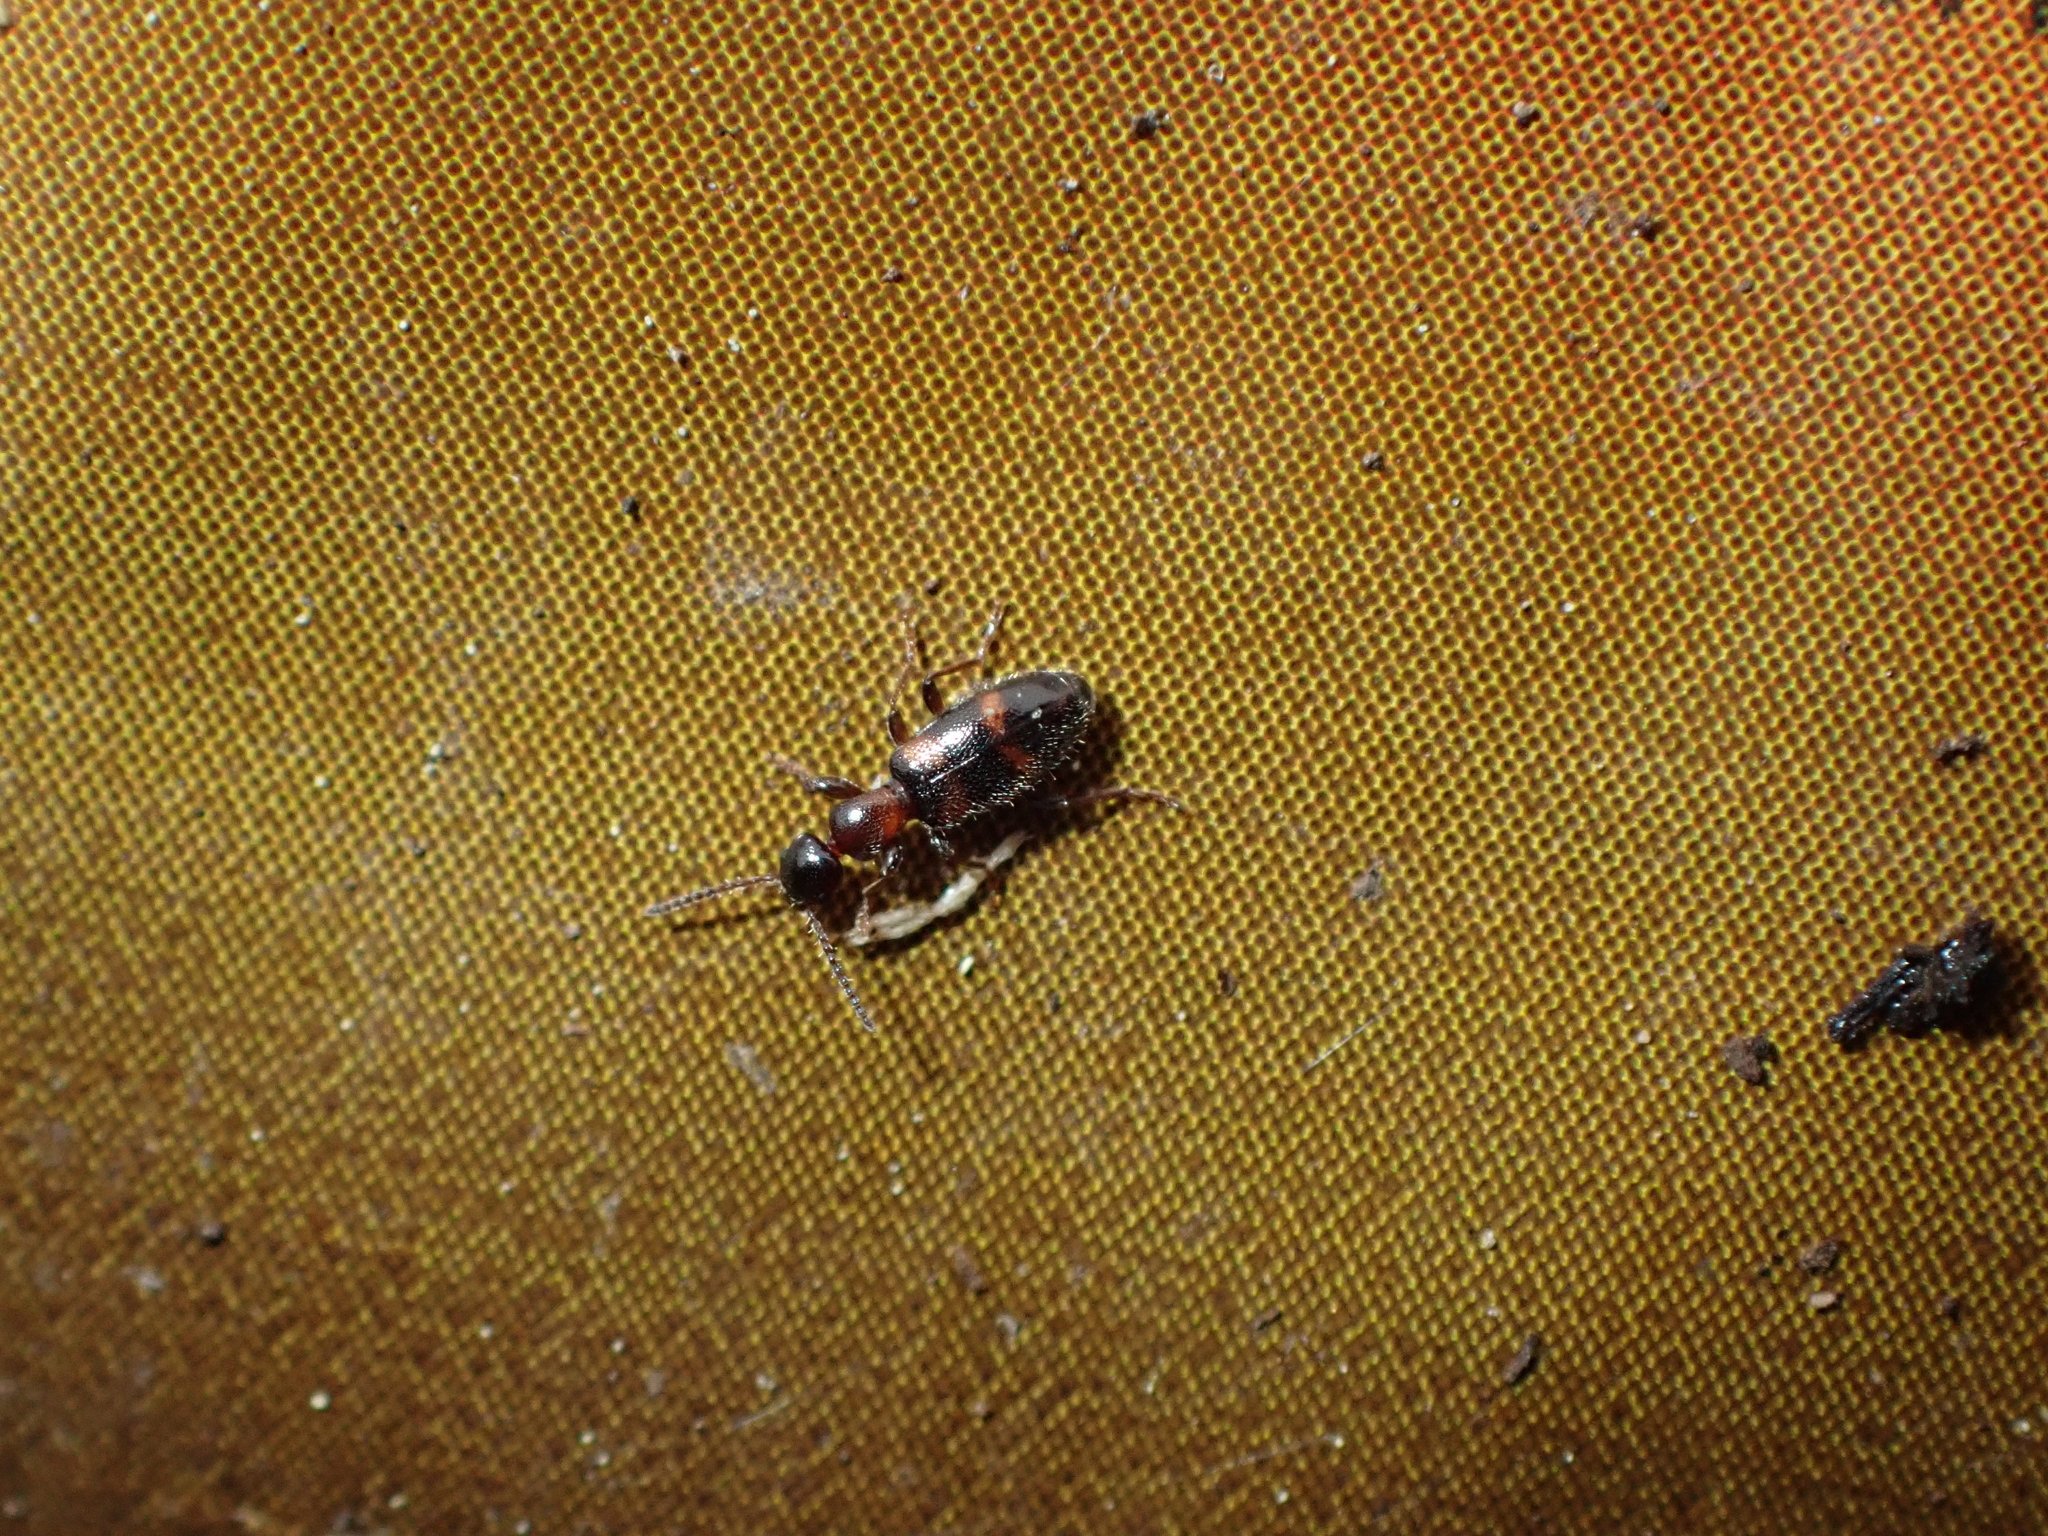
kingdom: Animalia
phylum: Arthropoda
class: Insecta
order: Coleoptera
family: Anthicidae
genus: Anthicus
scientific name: Anthicus
